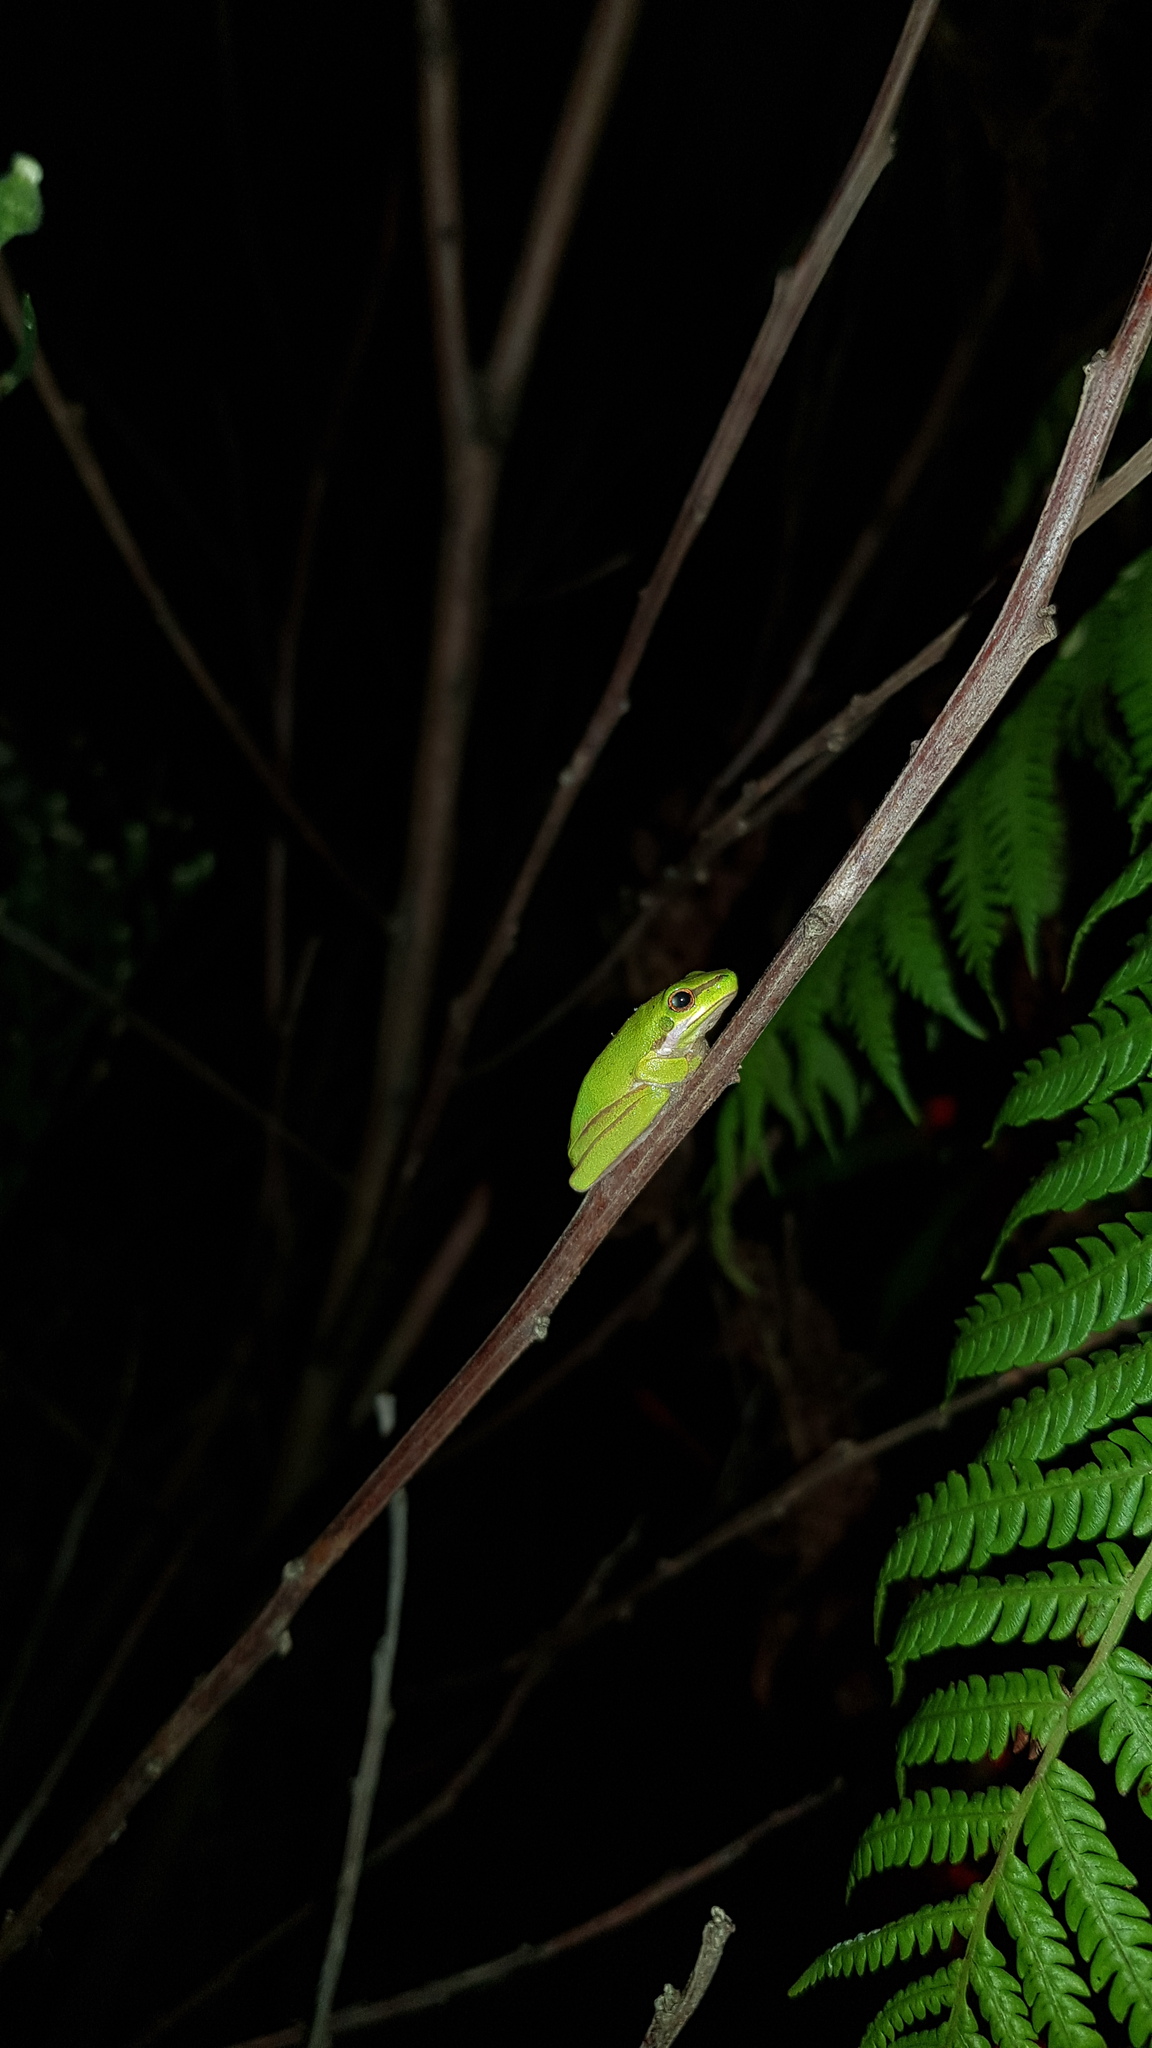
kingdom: Animalia
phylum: Chordata
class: Amphibia
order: Anura
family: Pelodryadidae
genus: Litoria
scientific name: Litoria fallax
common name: Eastern dwarf treefrog
